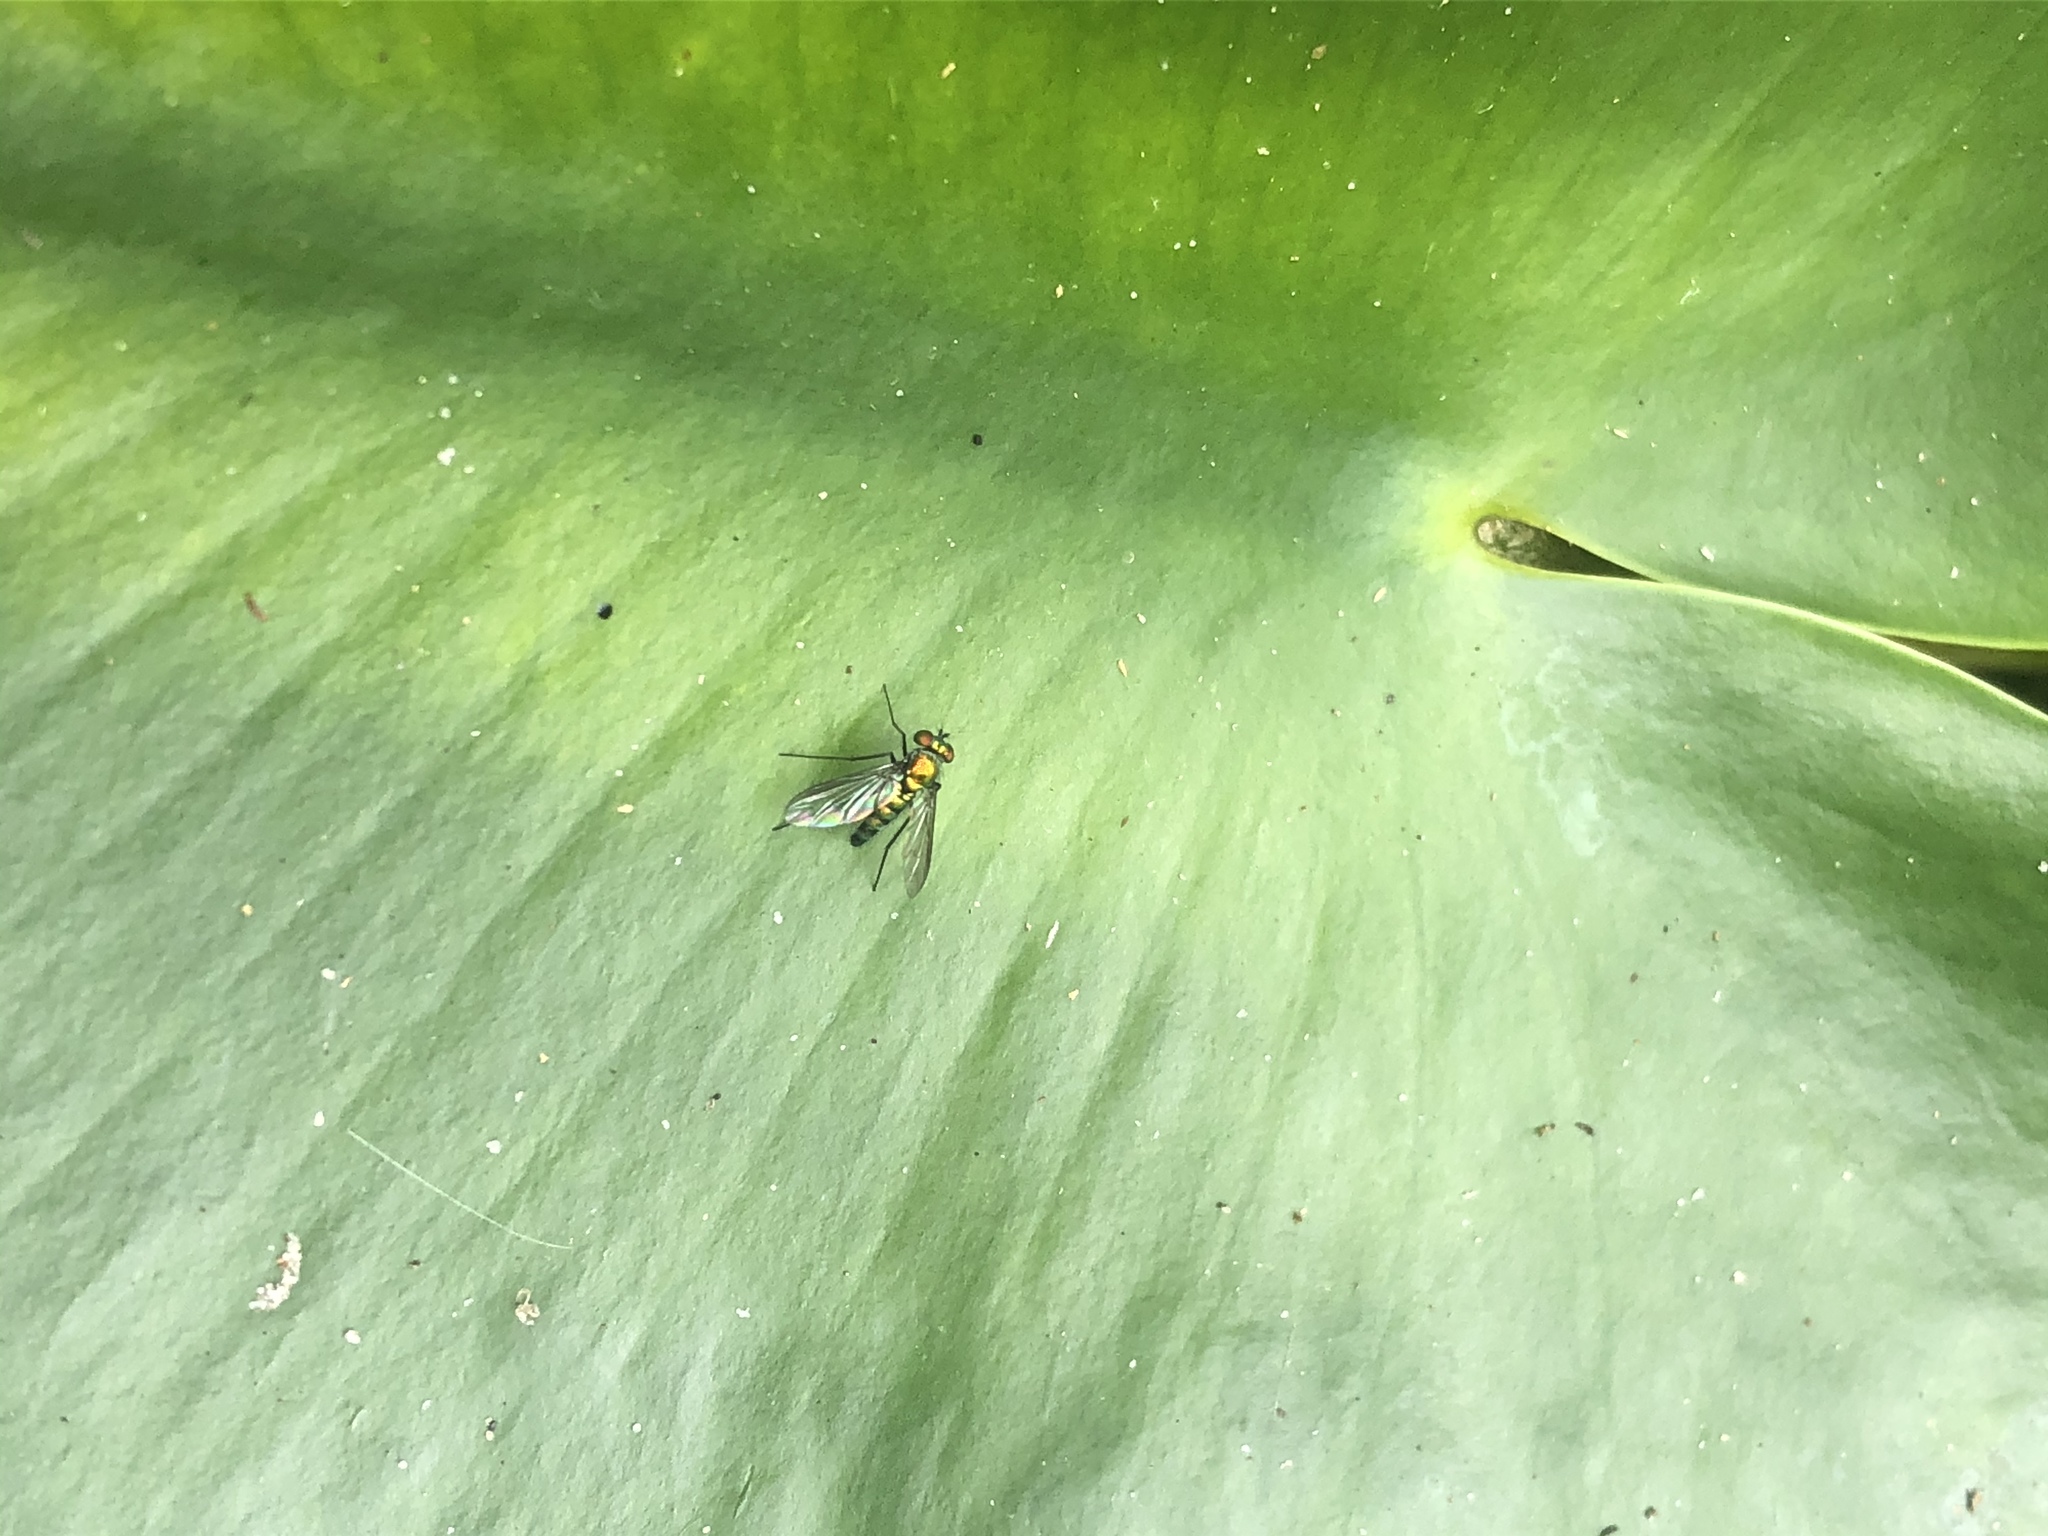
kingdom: Animalia
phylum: Arthropoda
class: Insecta
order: Diptera
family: Dolichopodidae
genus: Condylostylus
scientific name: Condylostylus longicornis
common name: Long-legged fly
